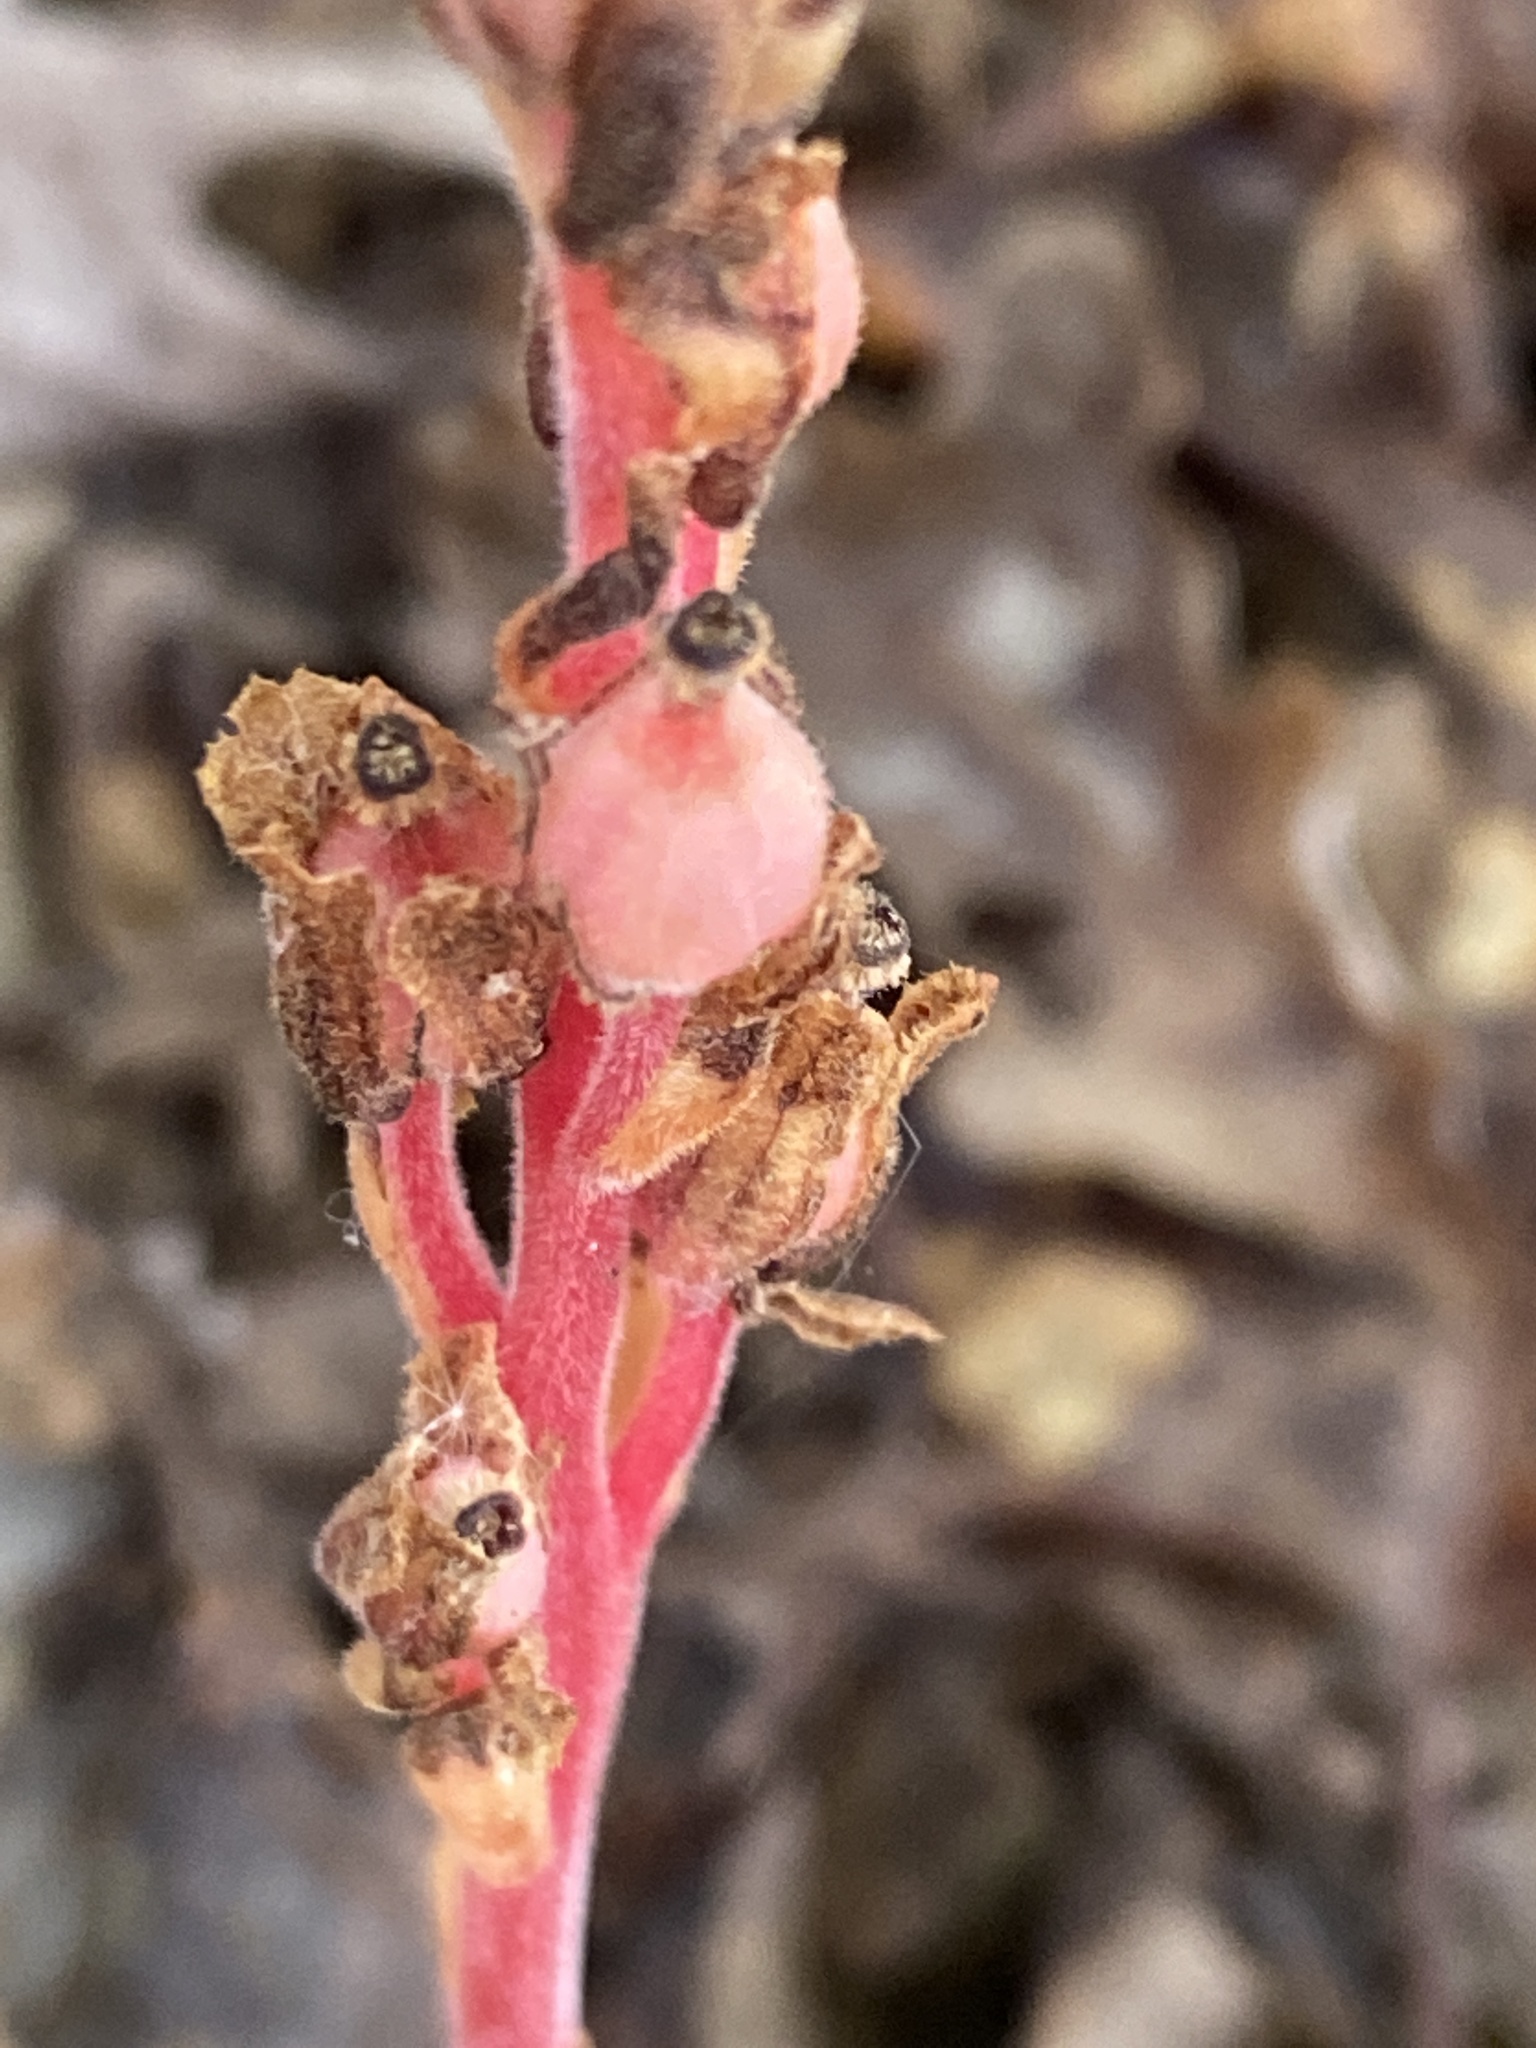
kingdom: Plantae
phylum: Tracheophyta
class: Magnoliopsida
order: Ericales
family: Ericaceae
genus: Hypopitys
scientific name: Hypopitys monotropa
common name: Yellow bird's-nest
